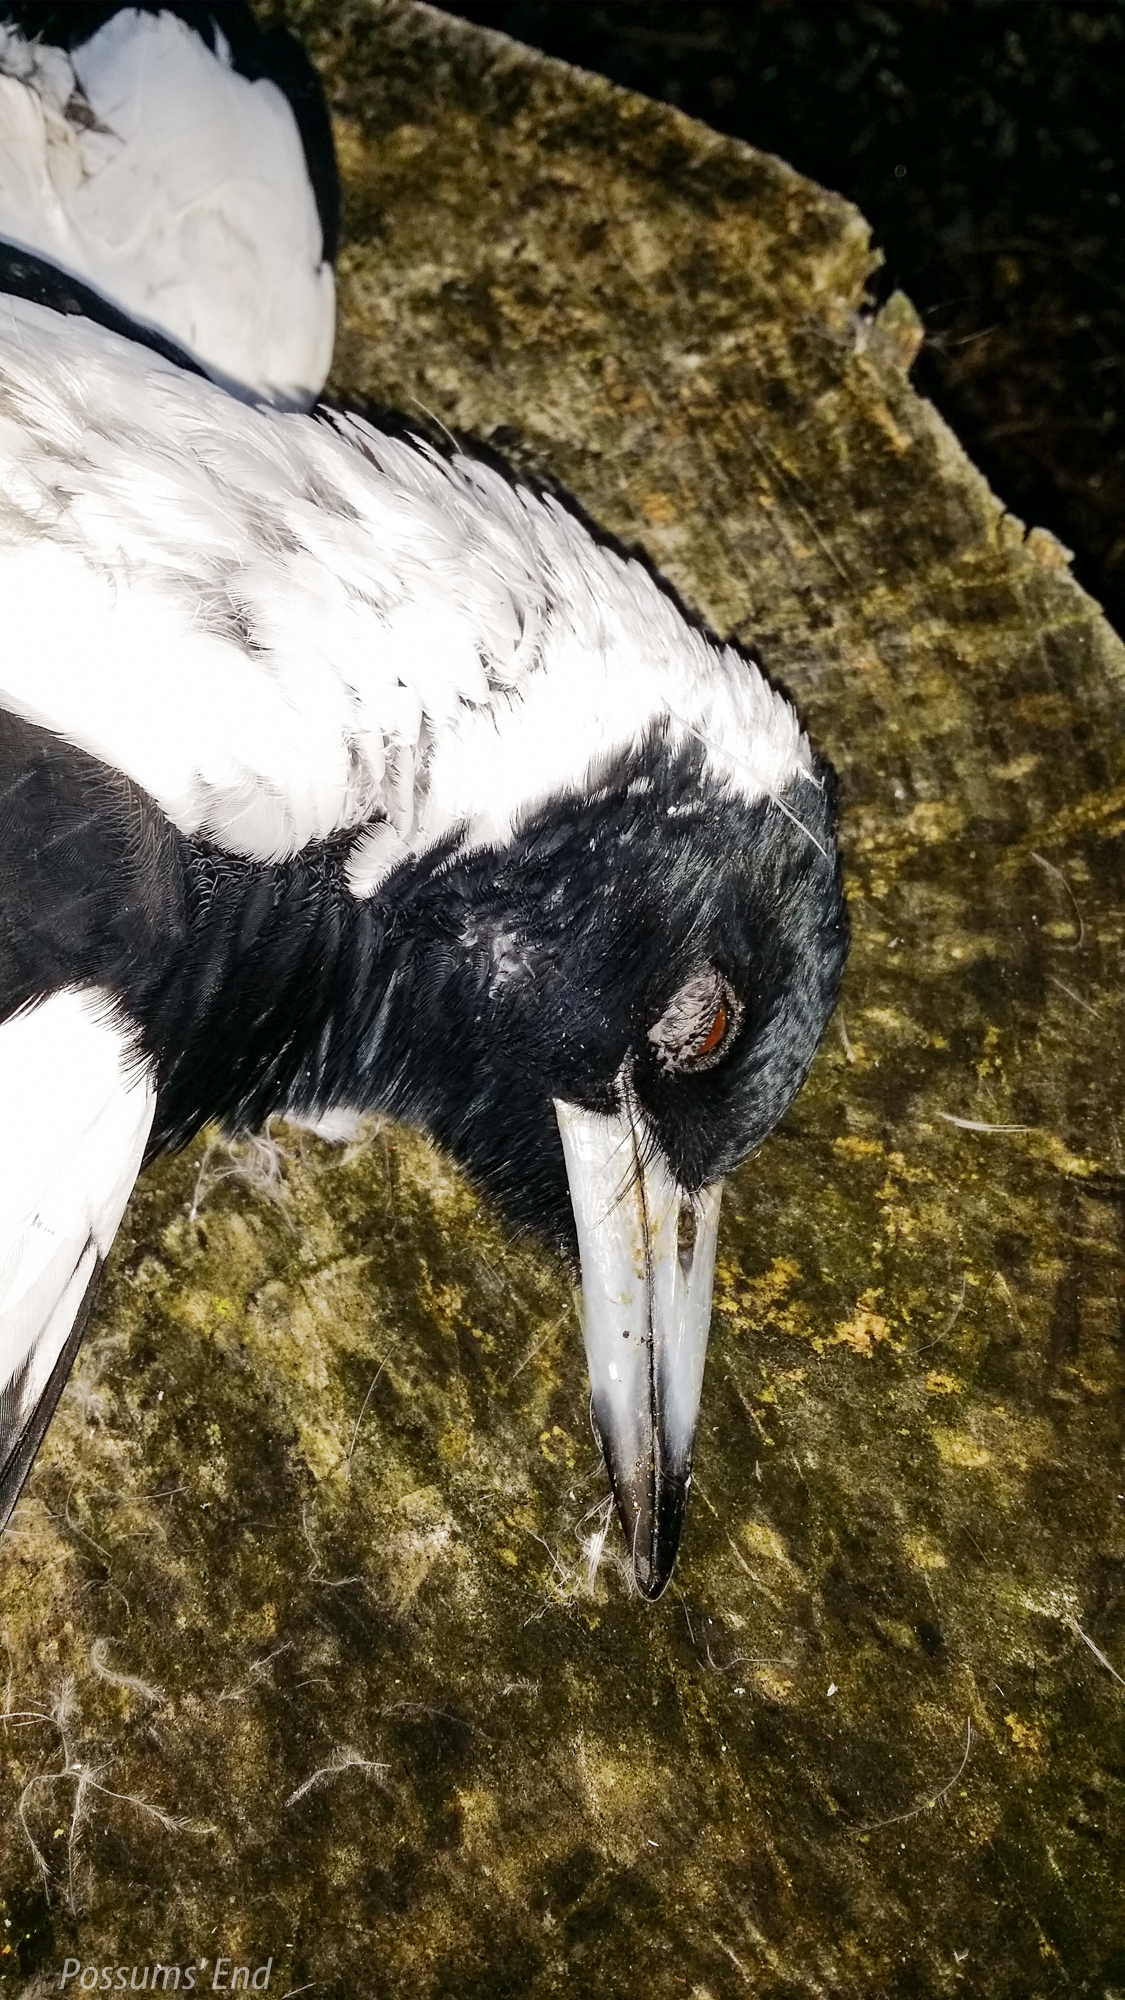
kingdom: Animalia
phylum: Chordata
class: Aves
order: Passeriformes
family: Cracticidae
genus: Gymnorhina
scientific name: Gymnorhina tibicen
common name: Australian magpie
